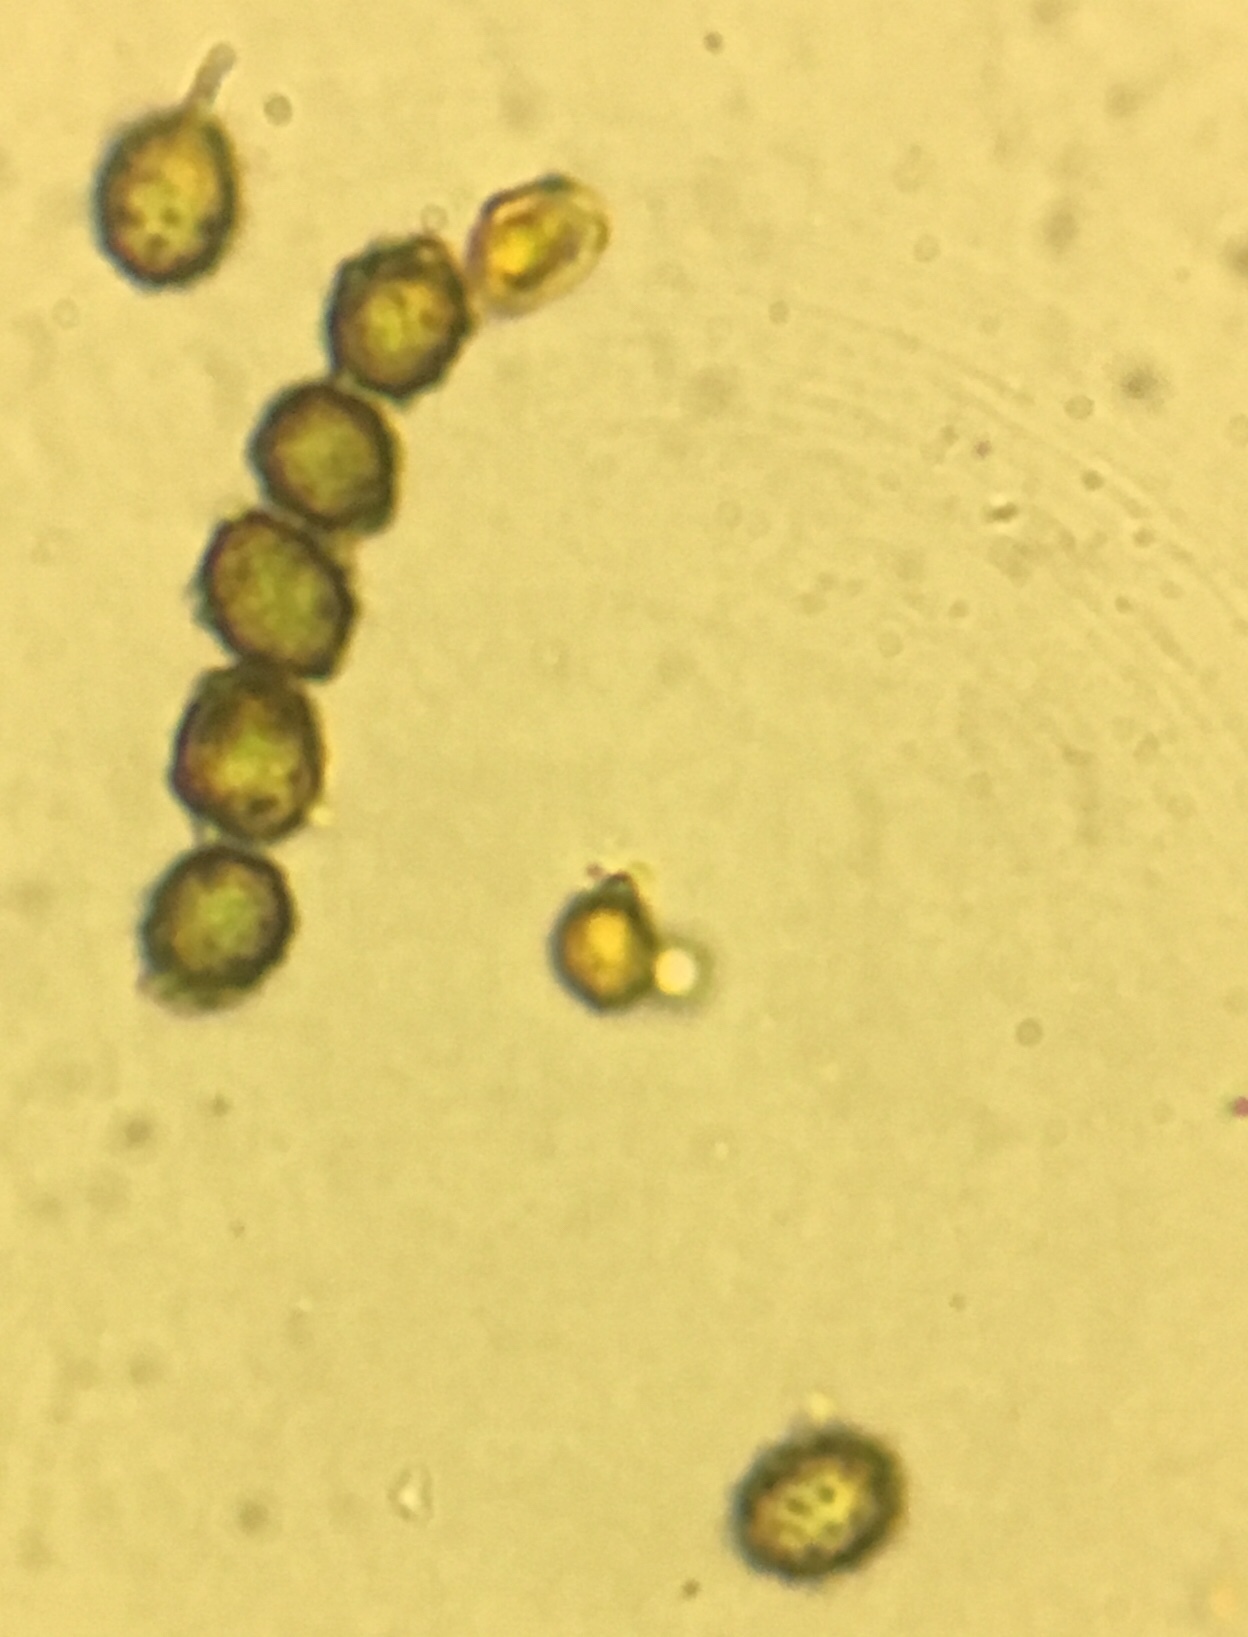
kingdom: Fungi
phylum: Basidiomycota
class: Agaricomycetes
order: Russulales
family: Russulaceae
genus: Russula
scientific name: Russula heterophylla
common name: Greasy green brittlegill
